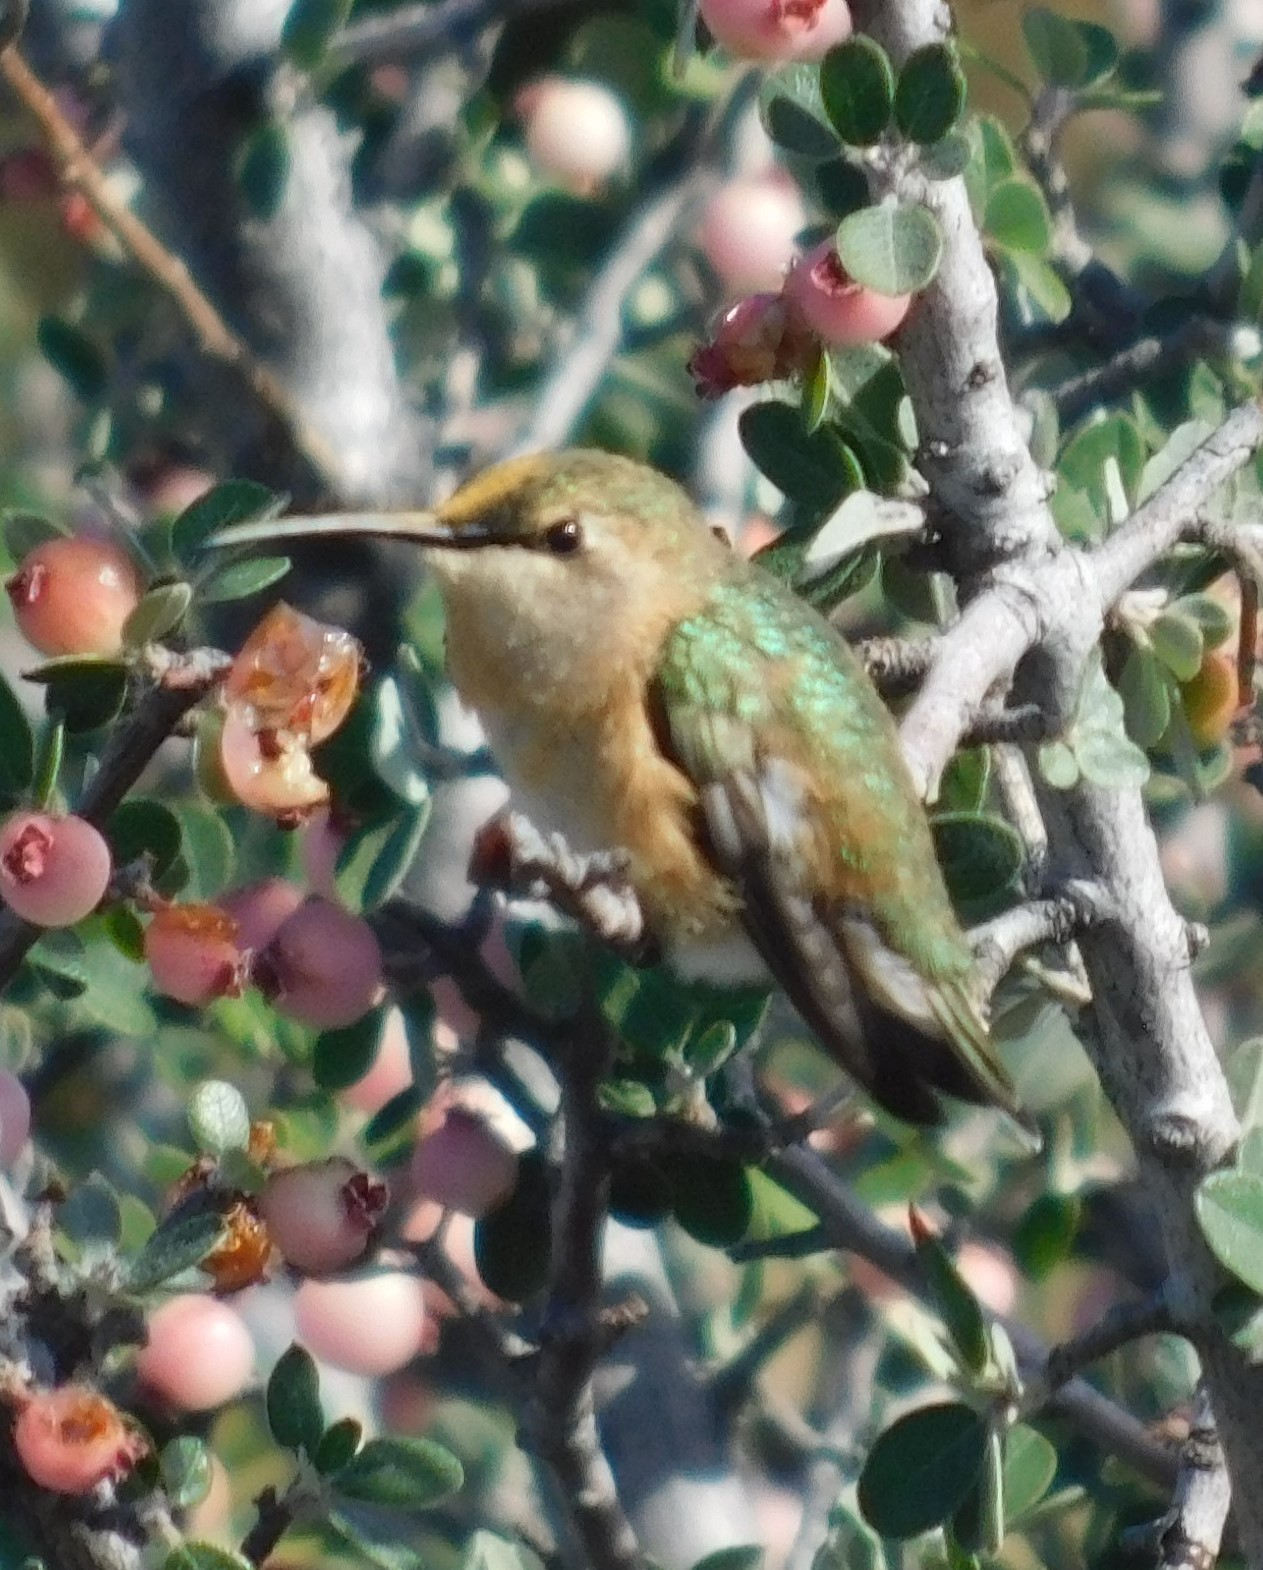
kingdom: Animalia
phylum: Chordata
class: Aves
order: Apodiformes
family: Trochilidae
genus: Calothorax
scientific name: Calothorax lucifer
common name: Lucifer sheartail
